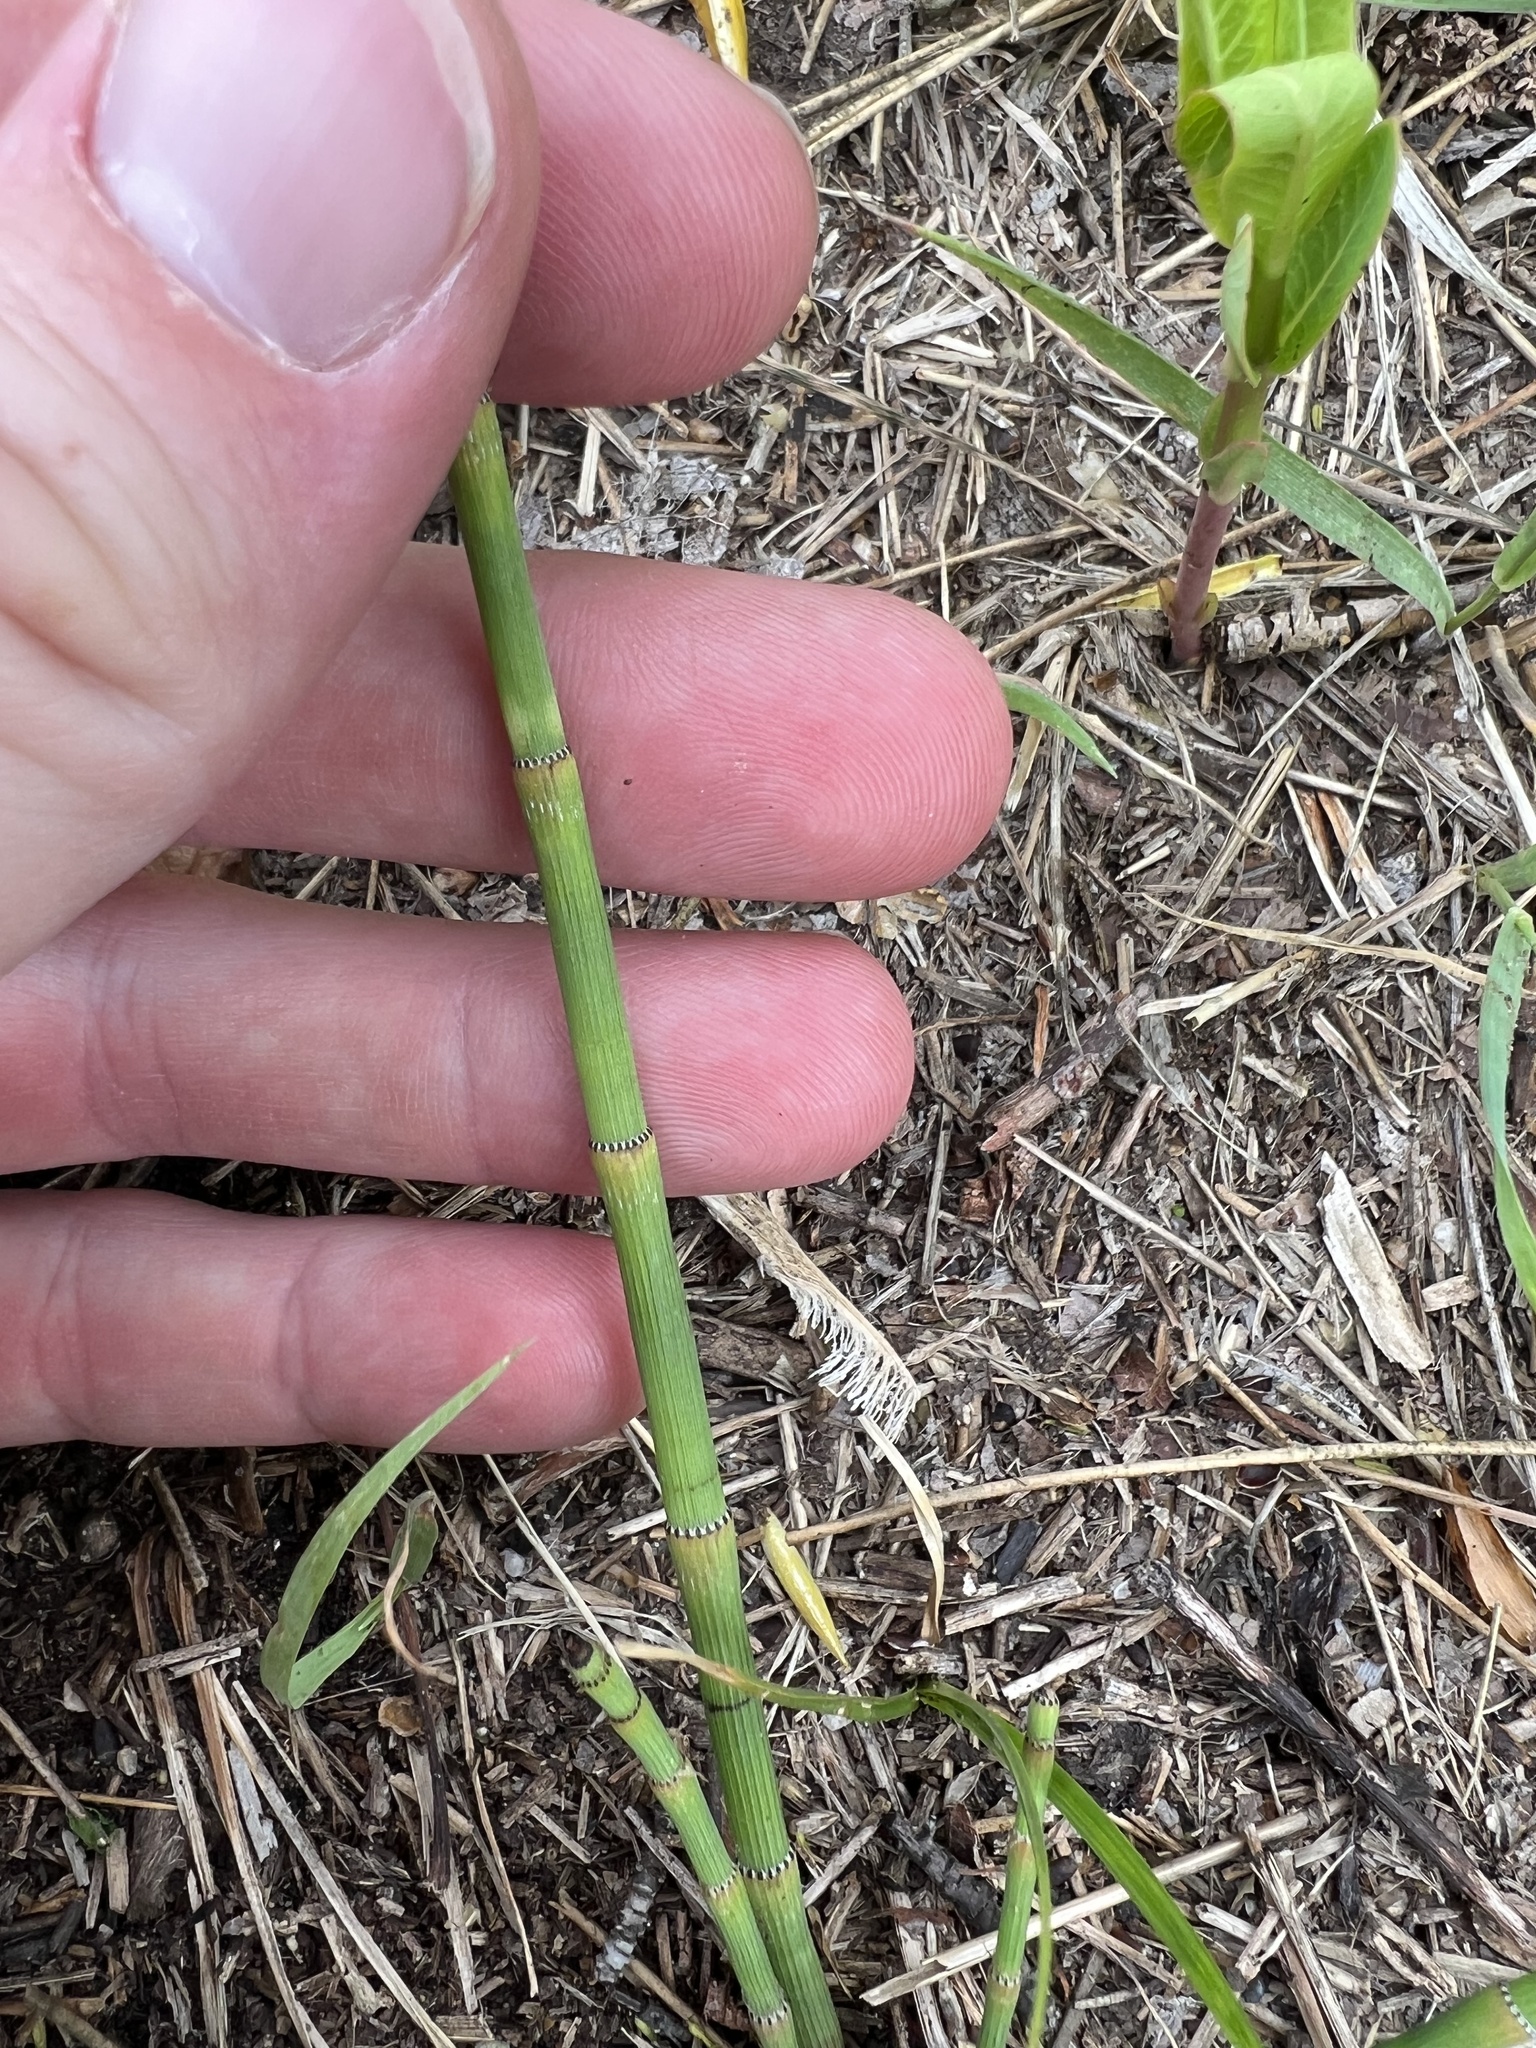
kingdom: Plantae
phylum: Tracheophyta
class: Polypodiopsida
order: Equisetales
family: Equisetaceae
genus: Equisetum
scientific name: Equisetum laevigatum
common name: Smooth scouring-rush
